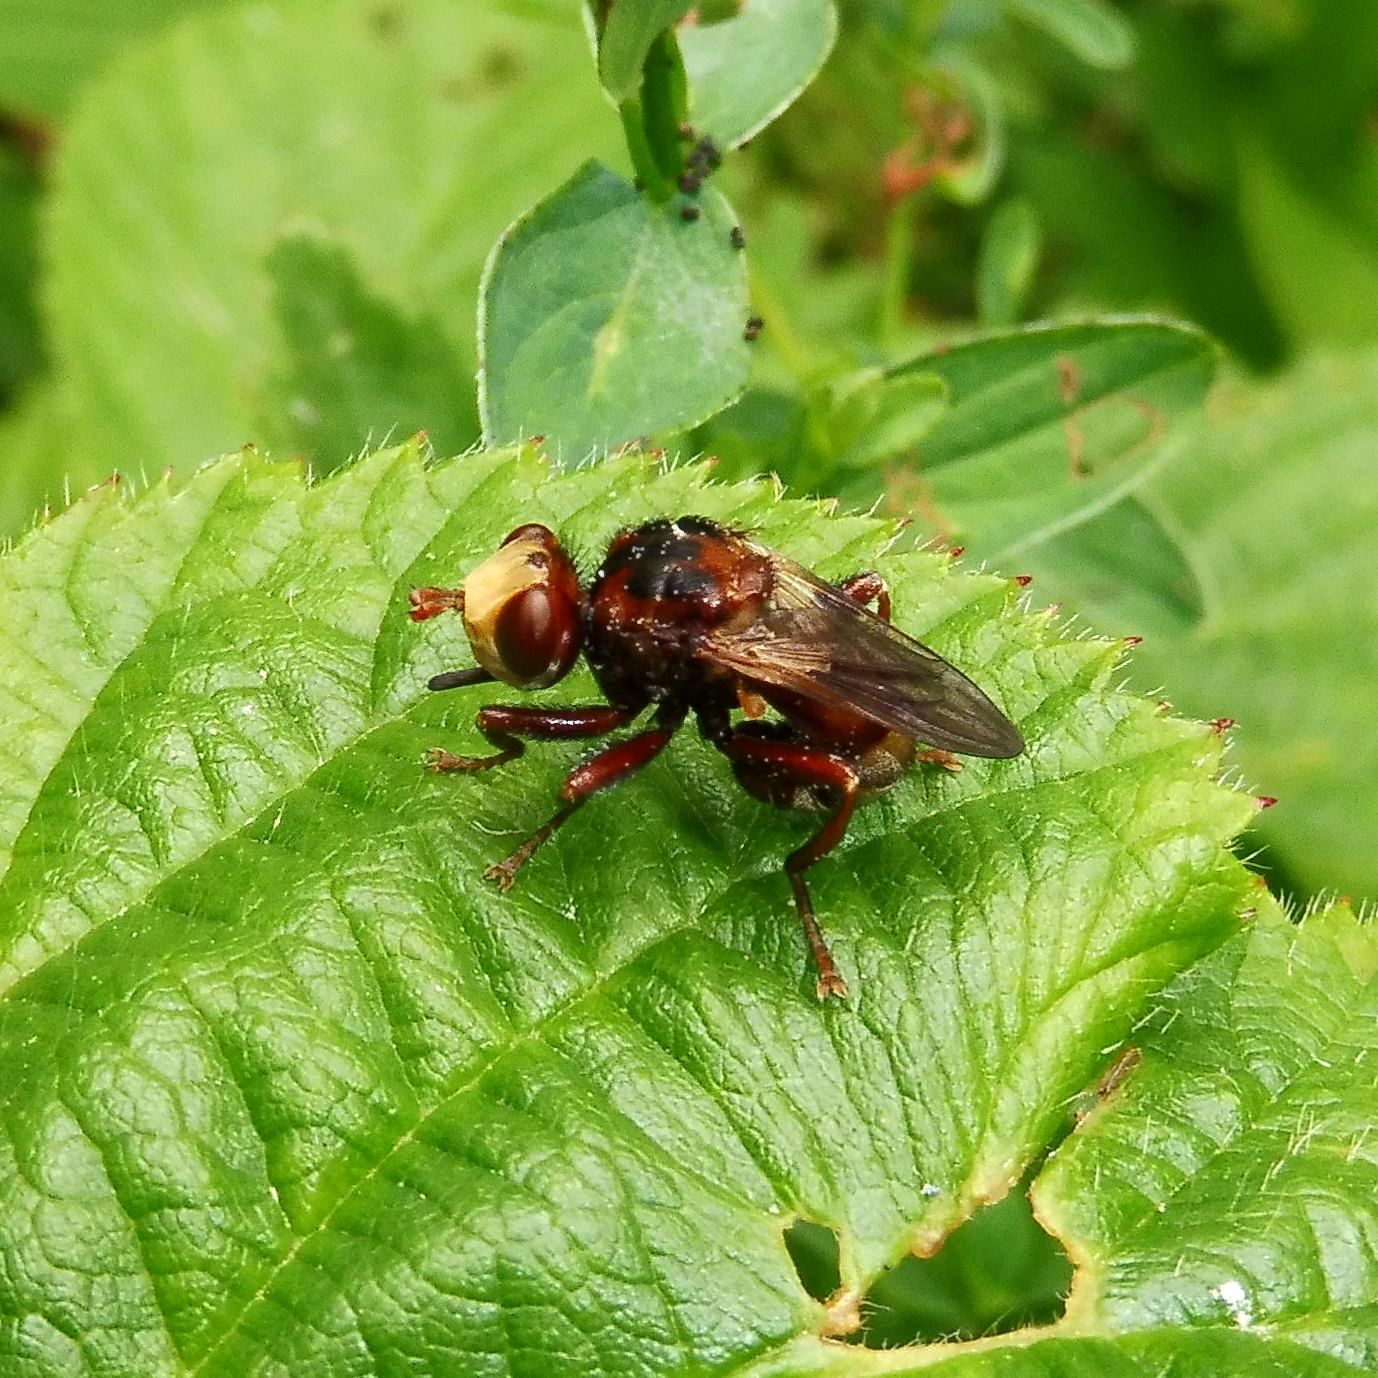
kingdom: Animalia
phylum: Arthropoda
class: Insecta
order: Diptera
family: Conopidae
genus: Sicus
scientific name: Sicus ferrugineus
